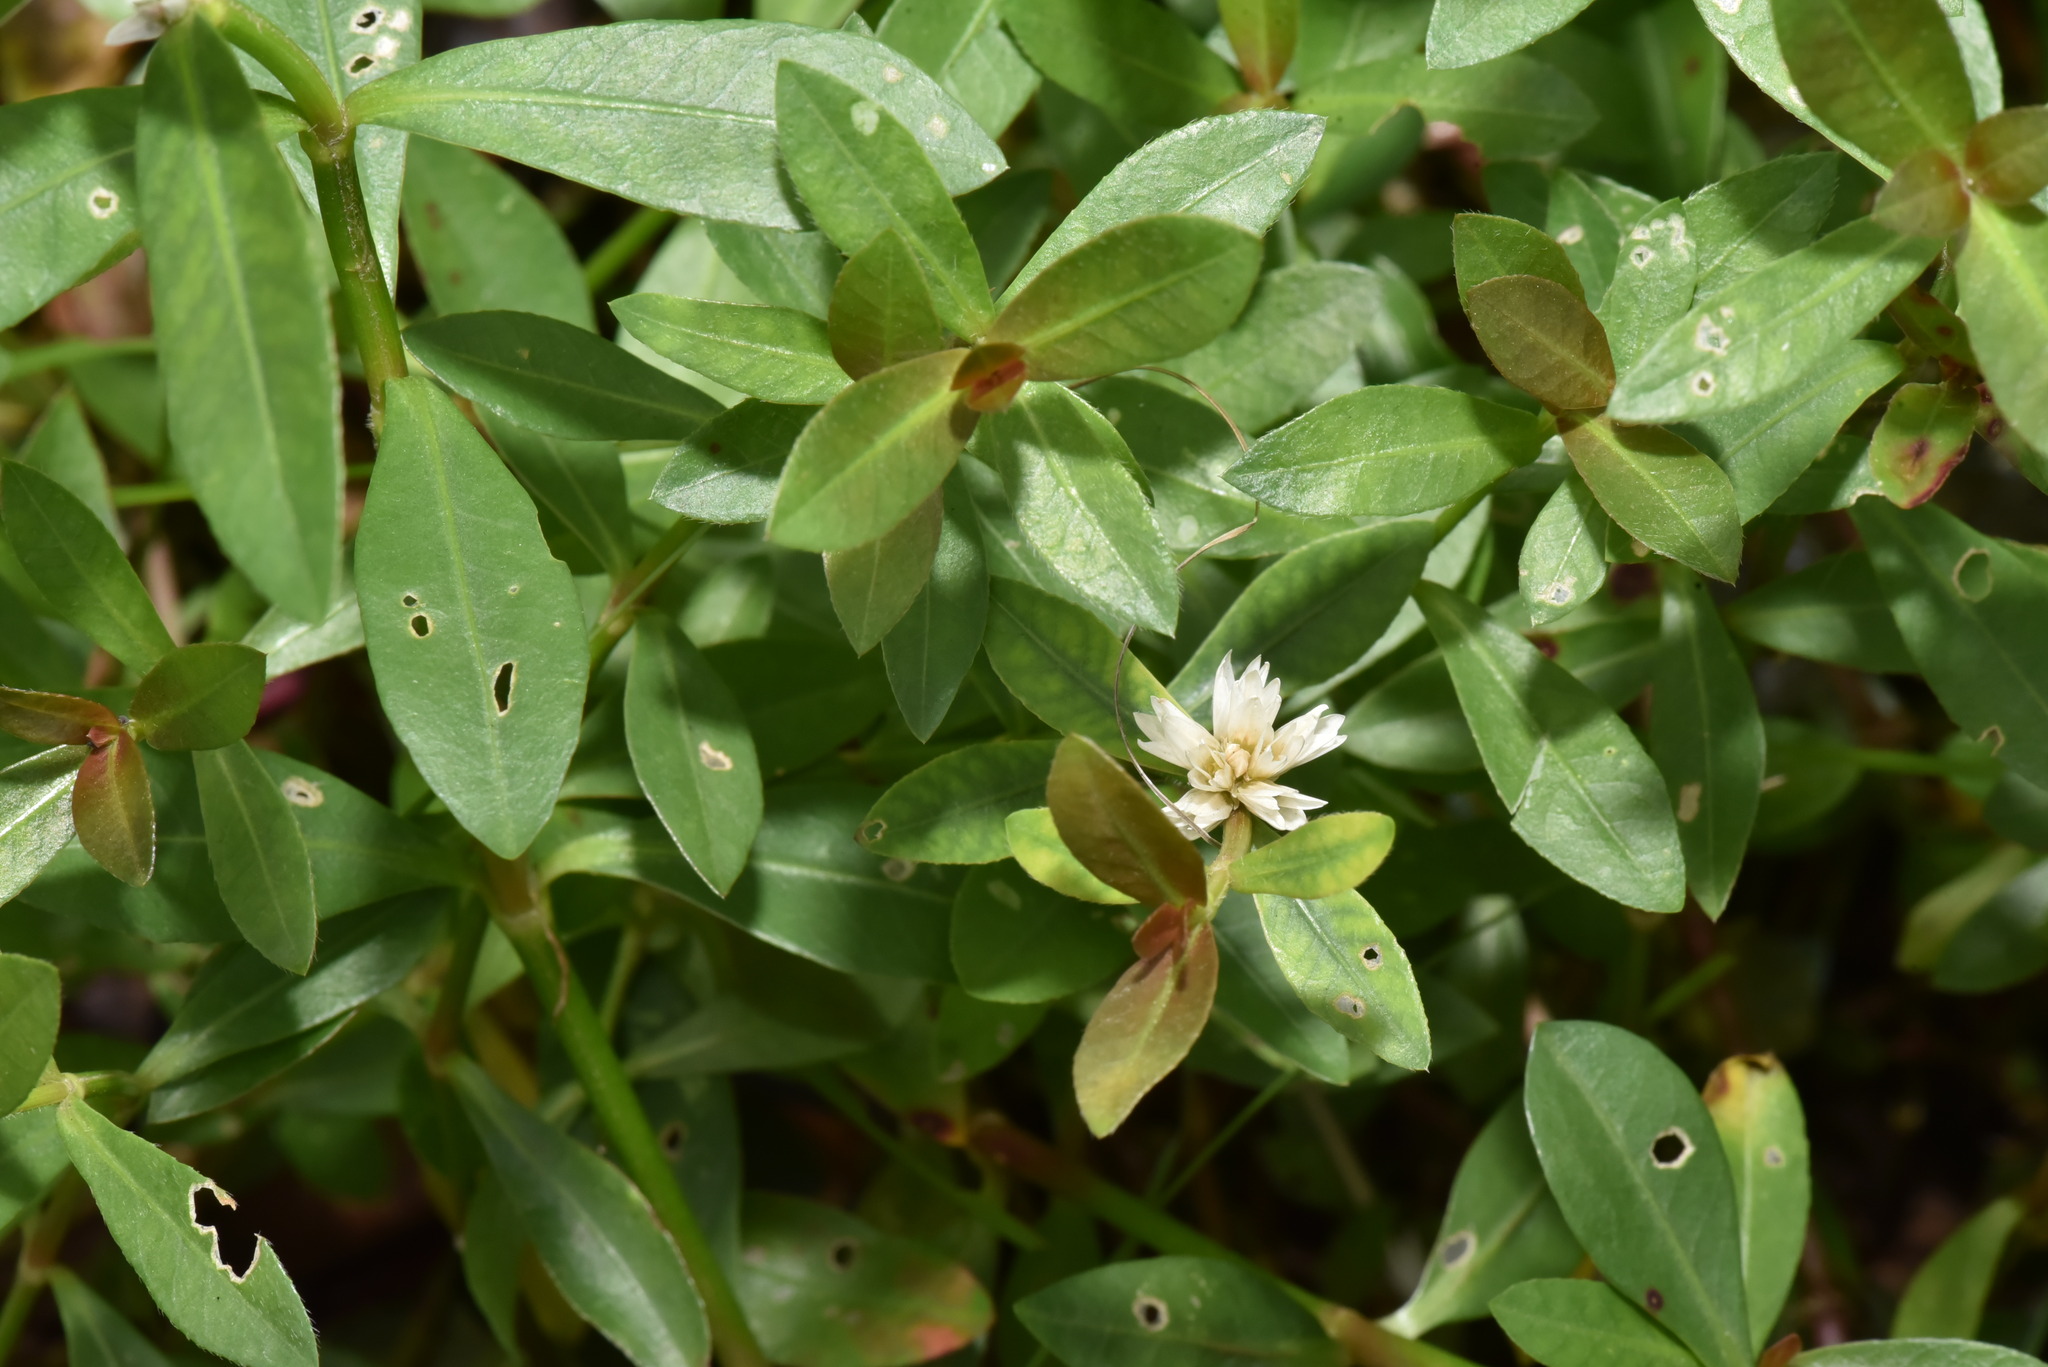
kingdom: Plantae
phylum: Tracheophyta
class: Magnoliopsida
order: Caryophyllales
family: Amaranthaceae
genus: Alternanthera
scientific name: Alternanthera philoxeroides
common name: Alligatorweed
